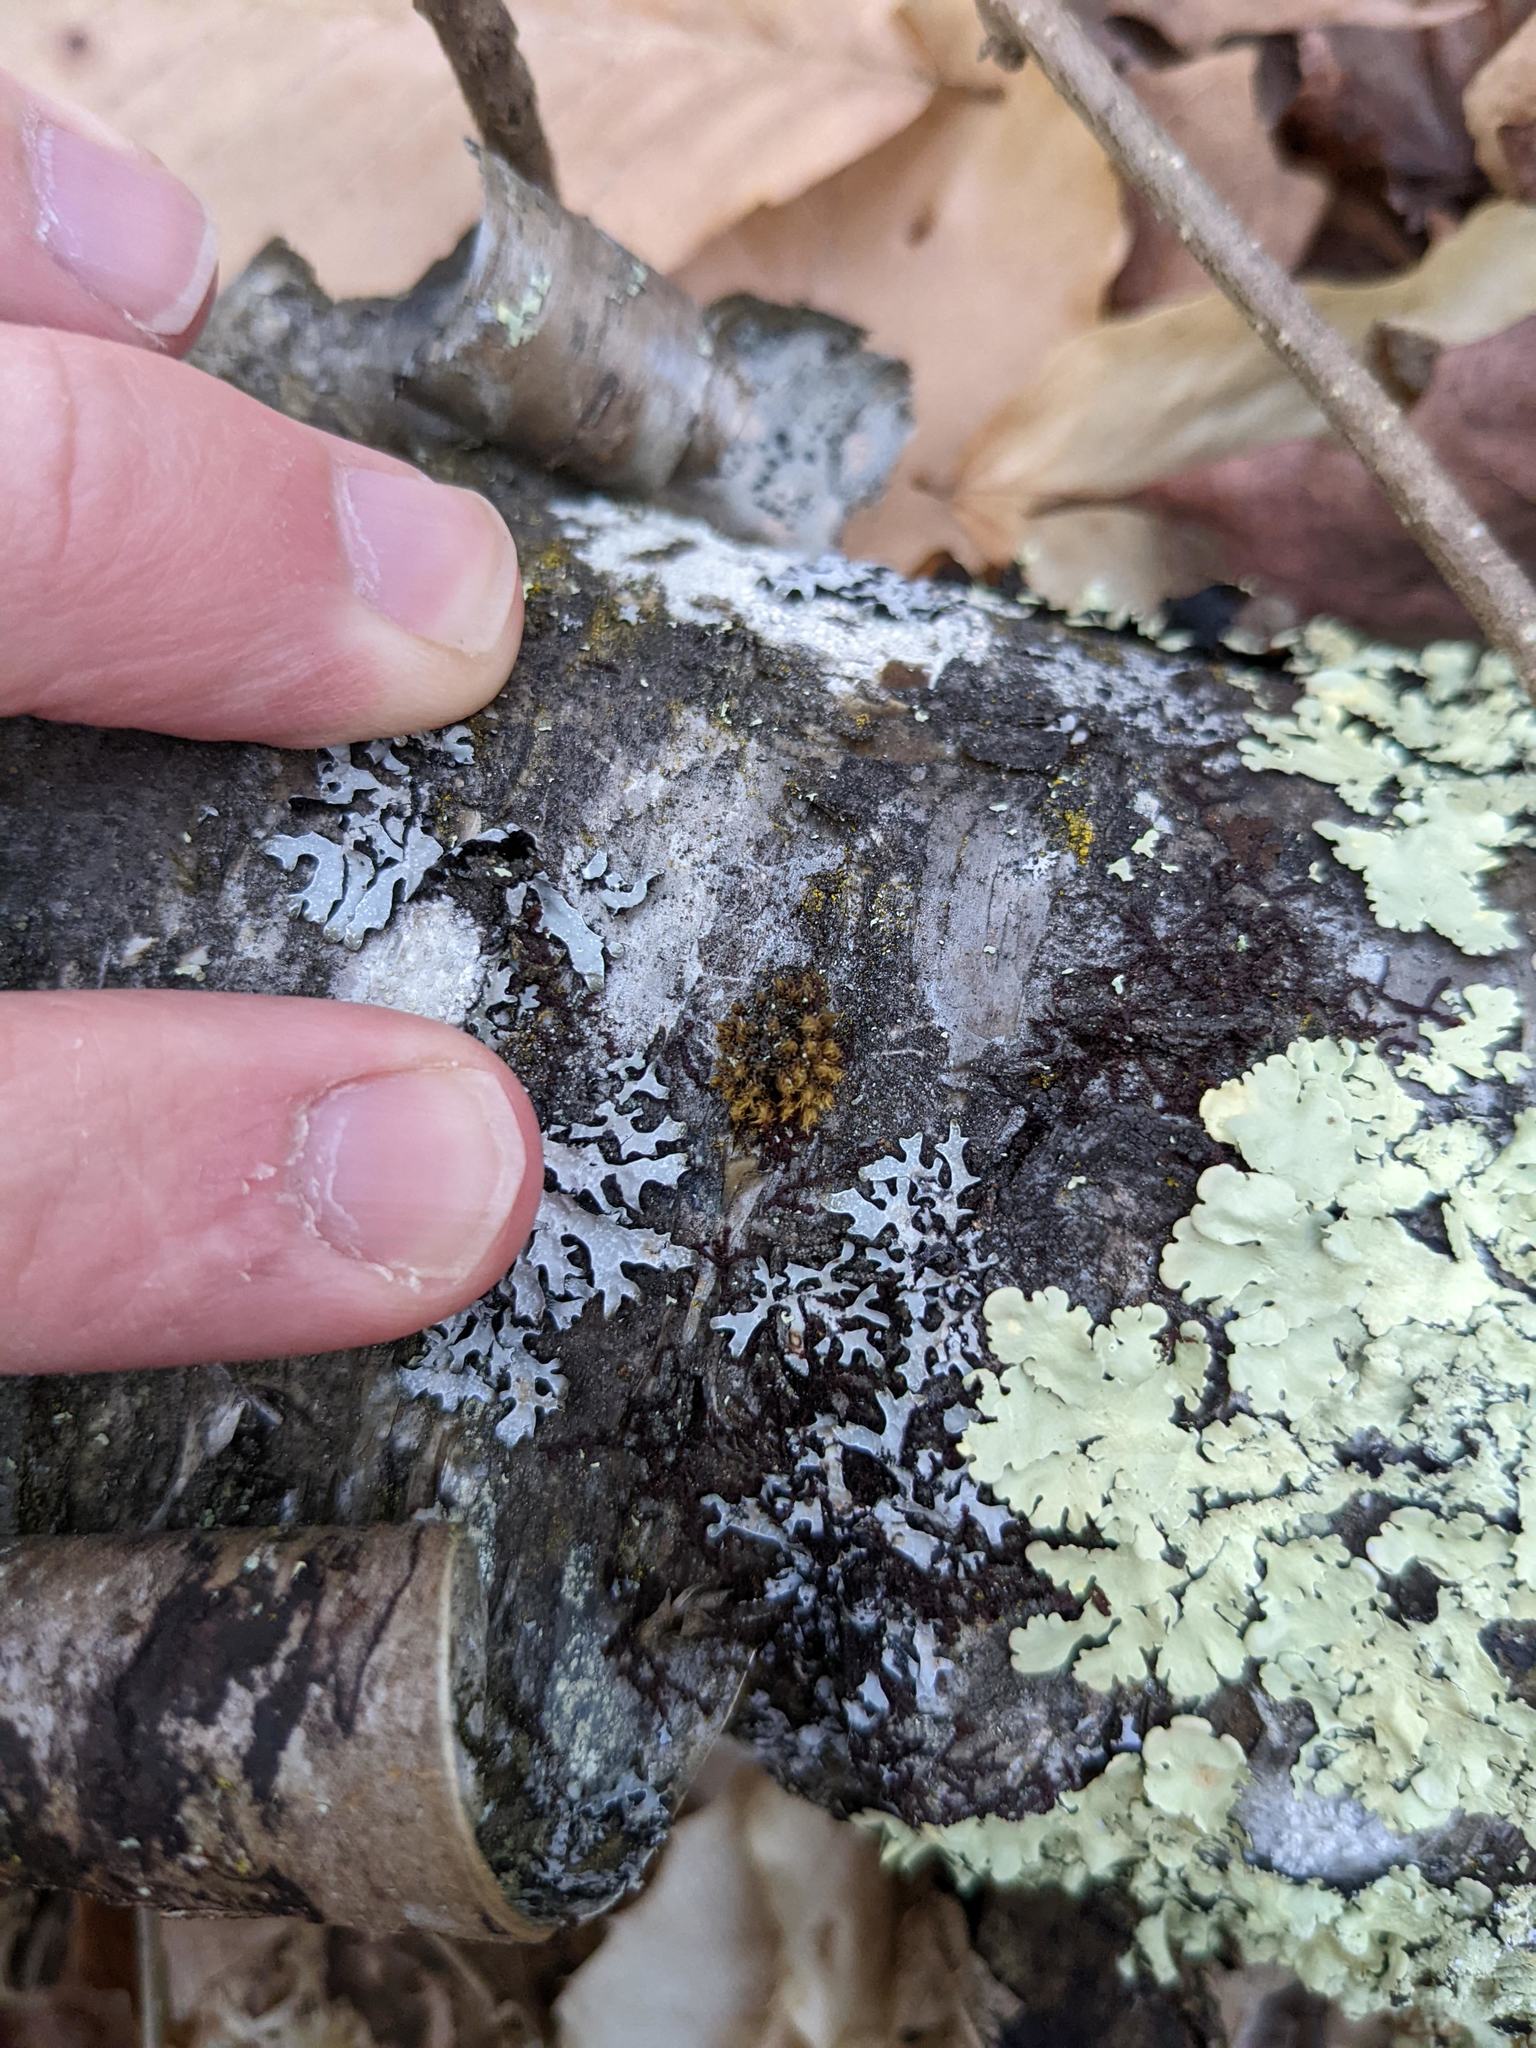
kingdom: Plantae
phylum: Bryophyta
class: Bryopsida
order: Orthotrichales
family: Orthotrichaceae
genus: Ulota
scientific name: Ulota crispa
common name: Crisped pincushion moss
